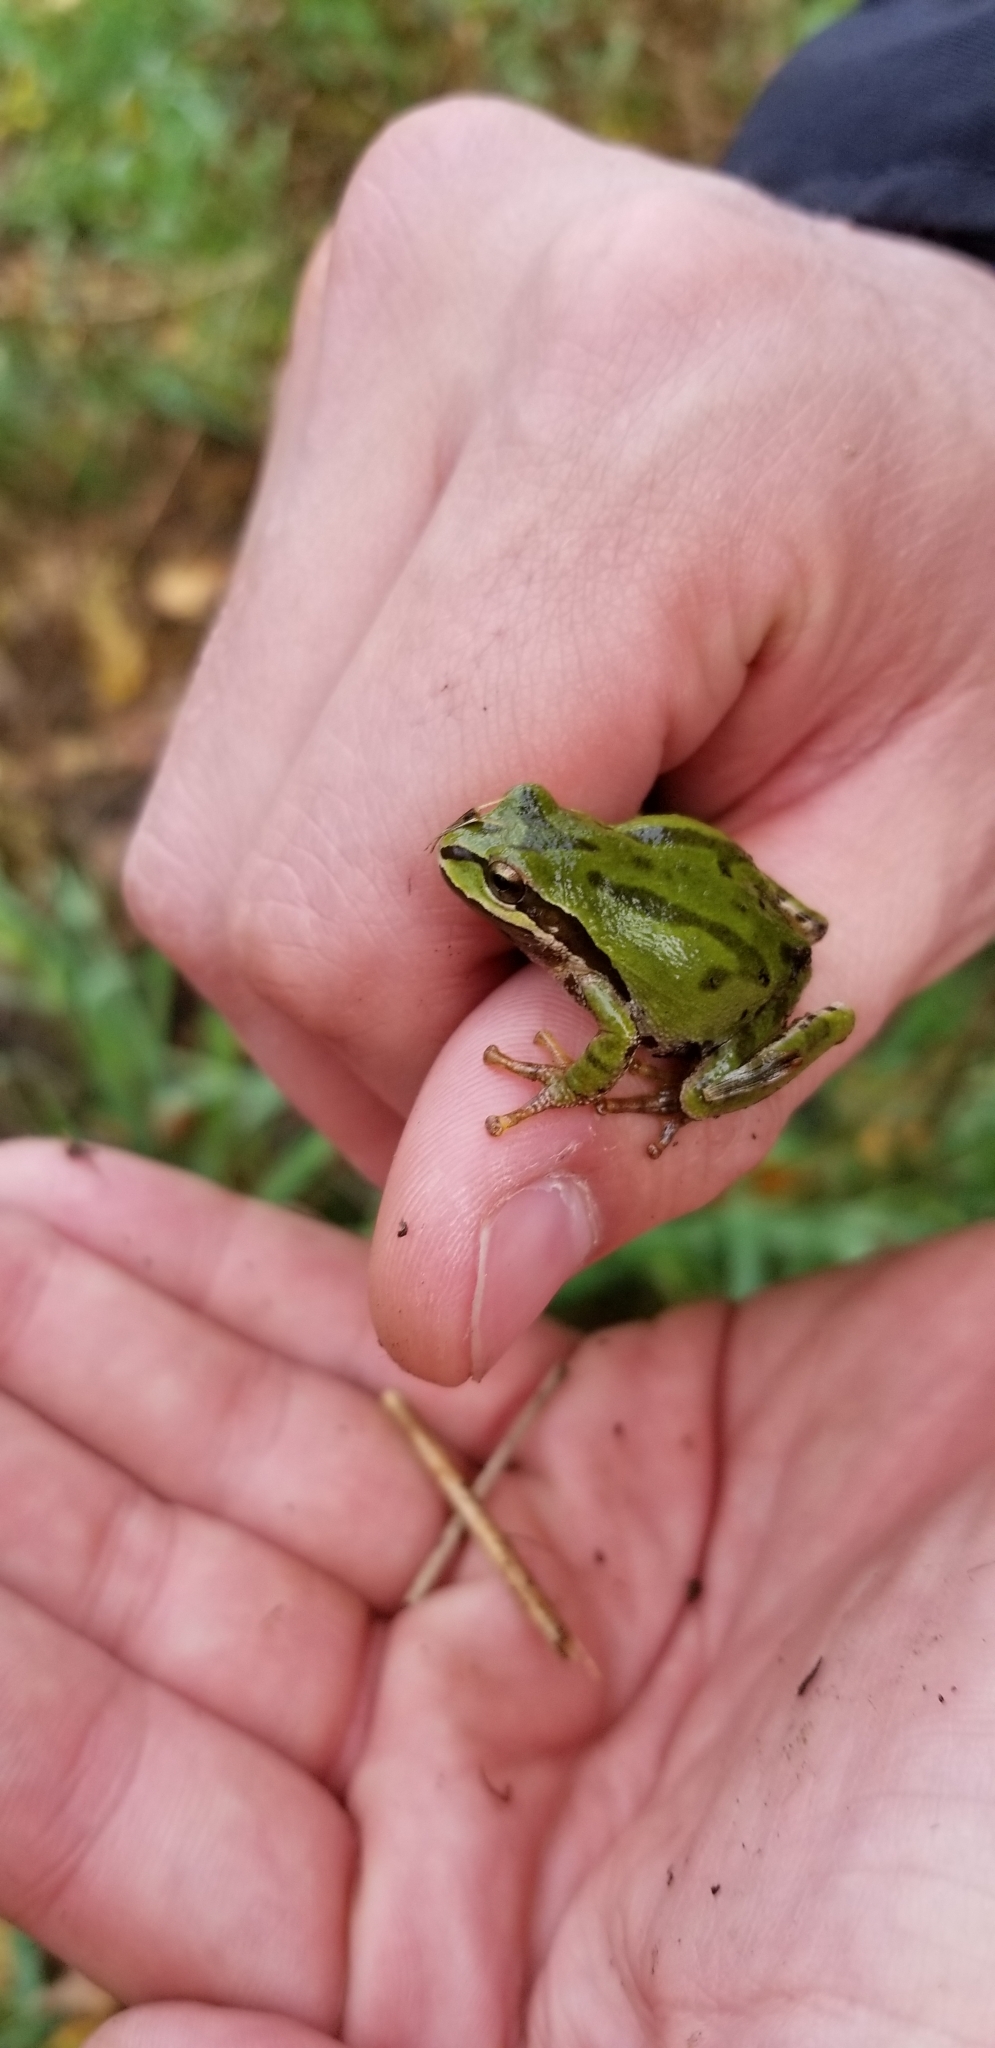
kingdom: Animalia
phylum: Chordata
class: Amphibia
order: Anura
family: Hylidae
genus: Pseudacris
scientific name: Pseudacris regilla
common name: Pacific chorus frog
